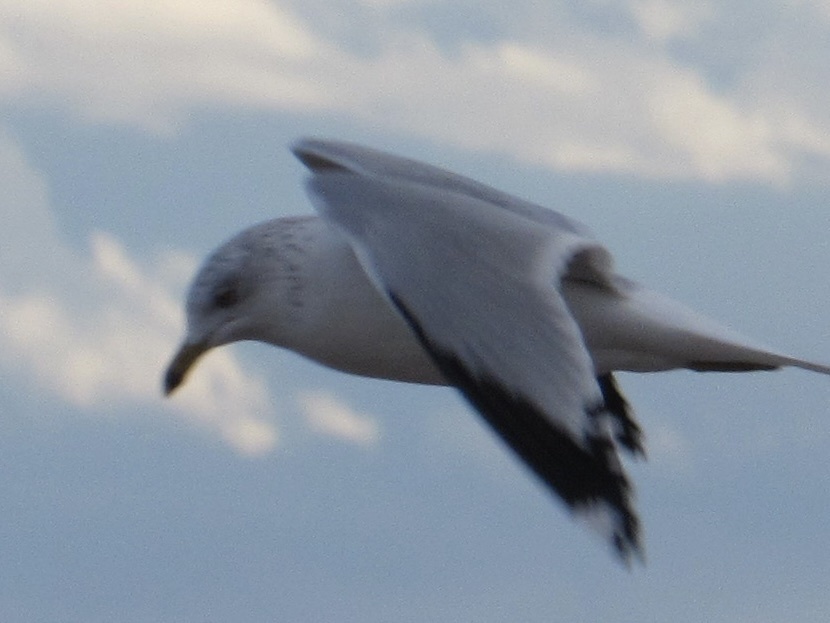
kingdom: Animalia
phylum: Chordata
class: Aves
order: Charadriiformes
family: Laridae
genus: Larus
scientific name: Larus delawarensis
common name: Ring-billed gull
